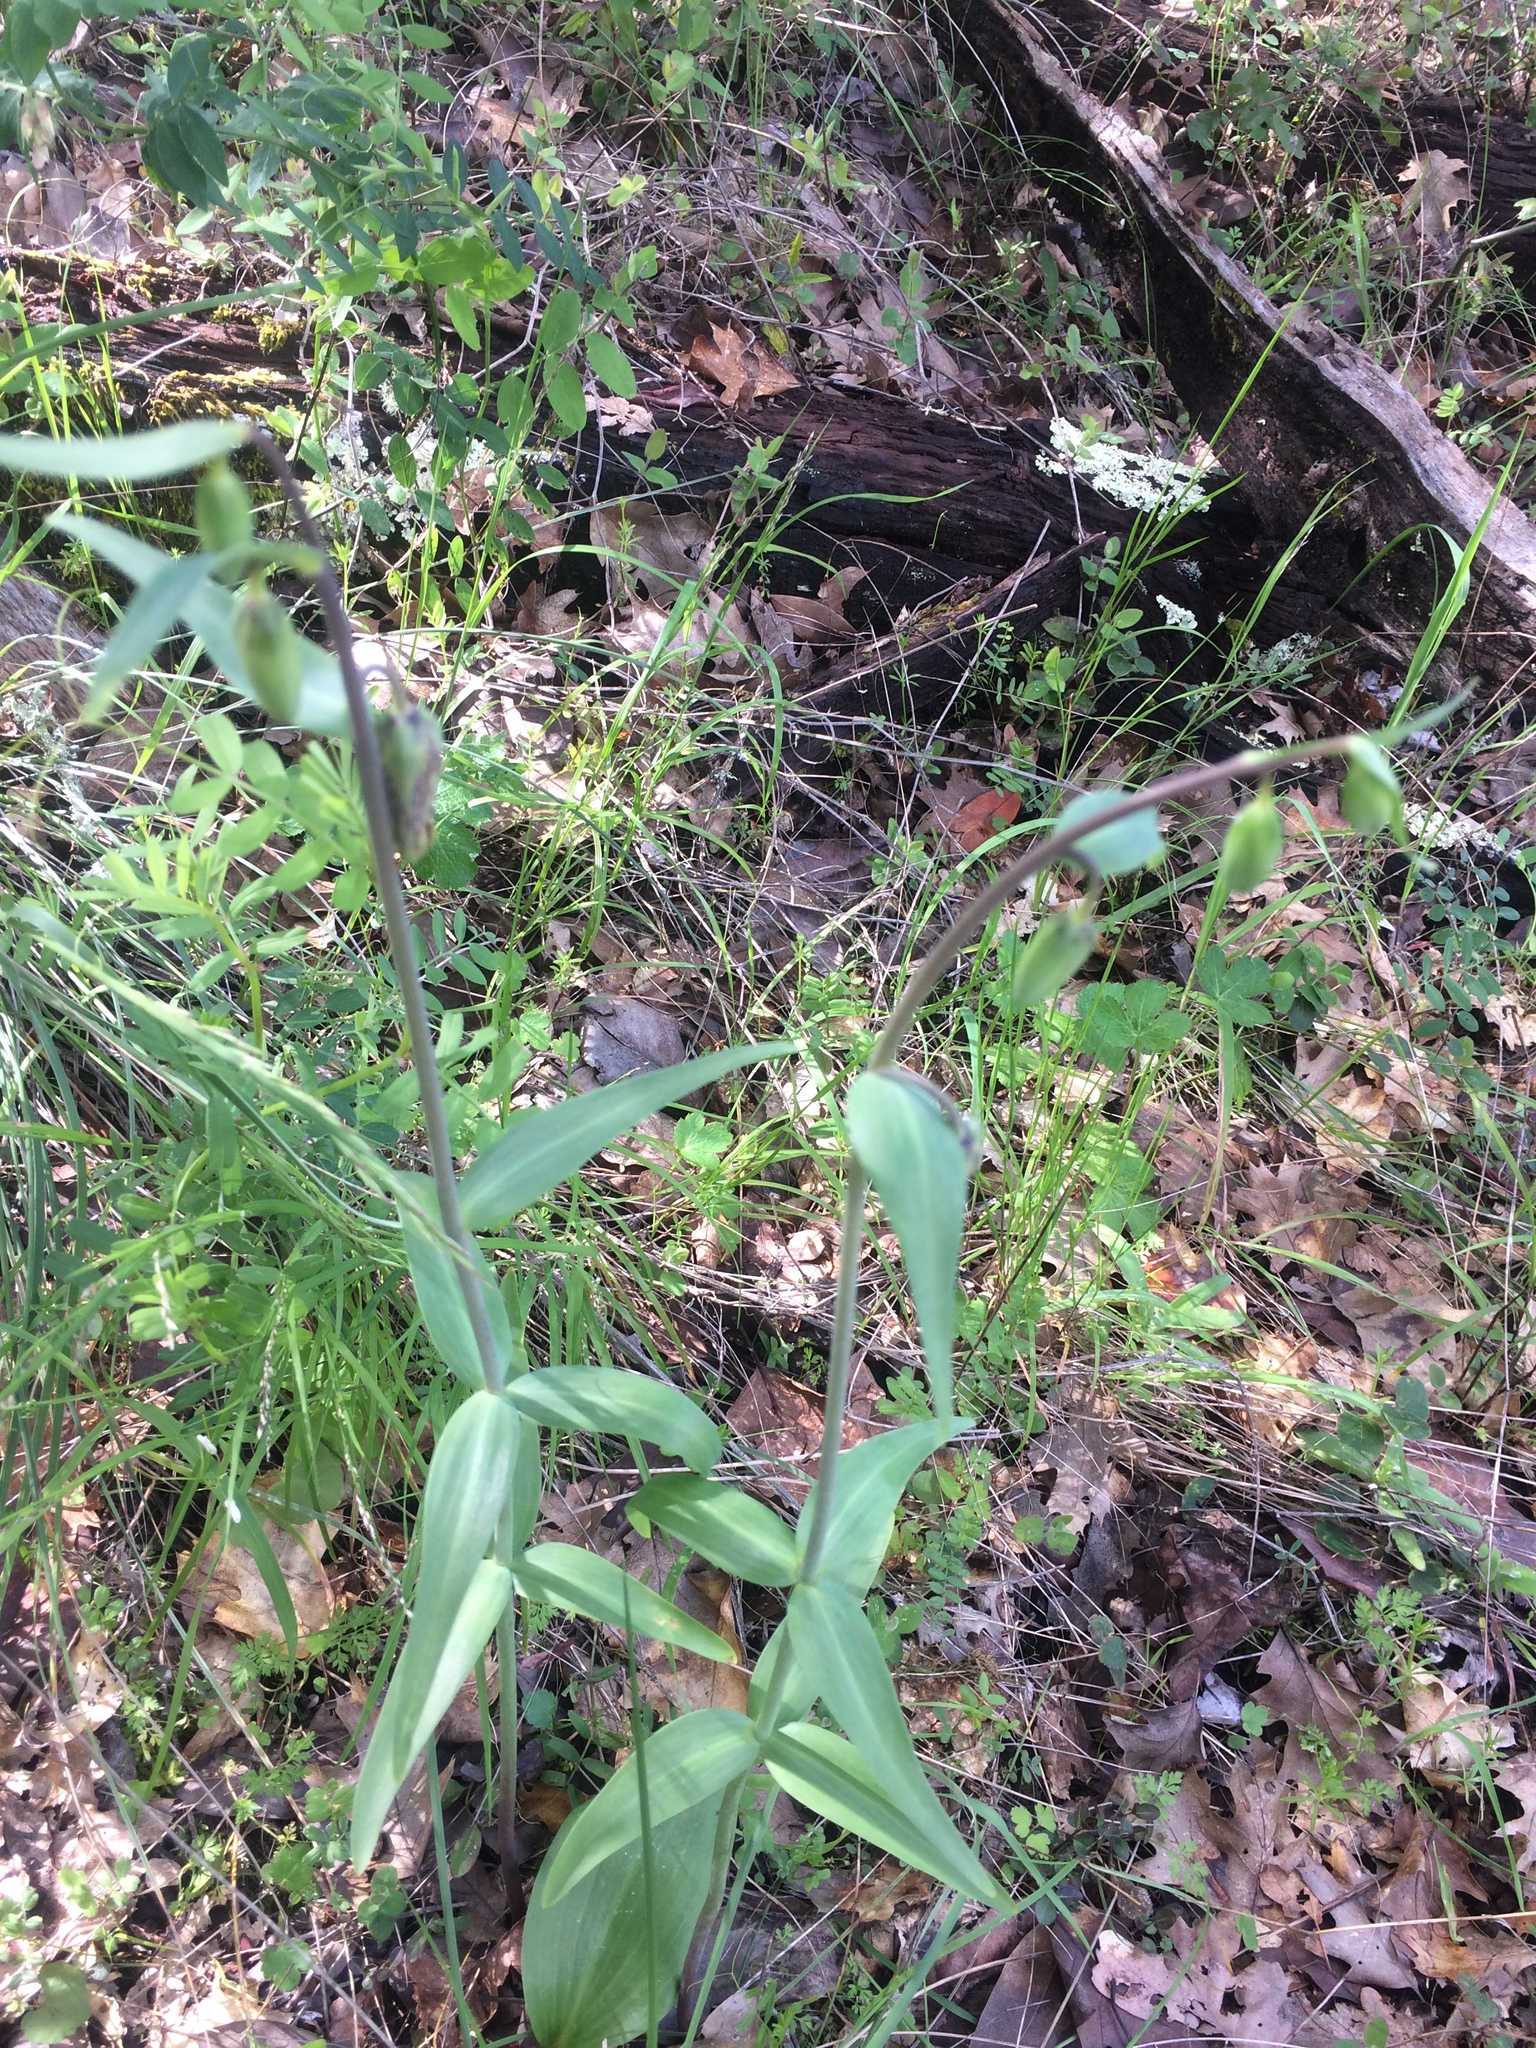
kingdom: Plantae
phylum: Tracheophyta
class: Liliopsida
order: Liliales
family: Liliaceae
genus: Fritillaria
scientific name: Fritillaria affinis
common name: Ojai fritillary
